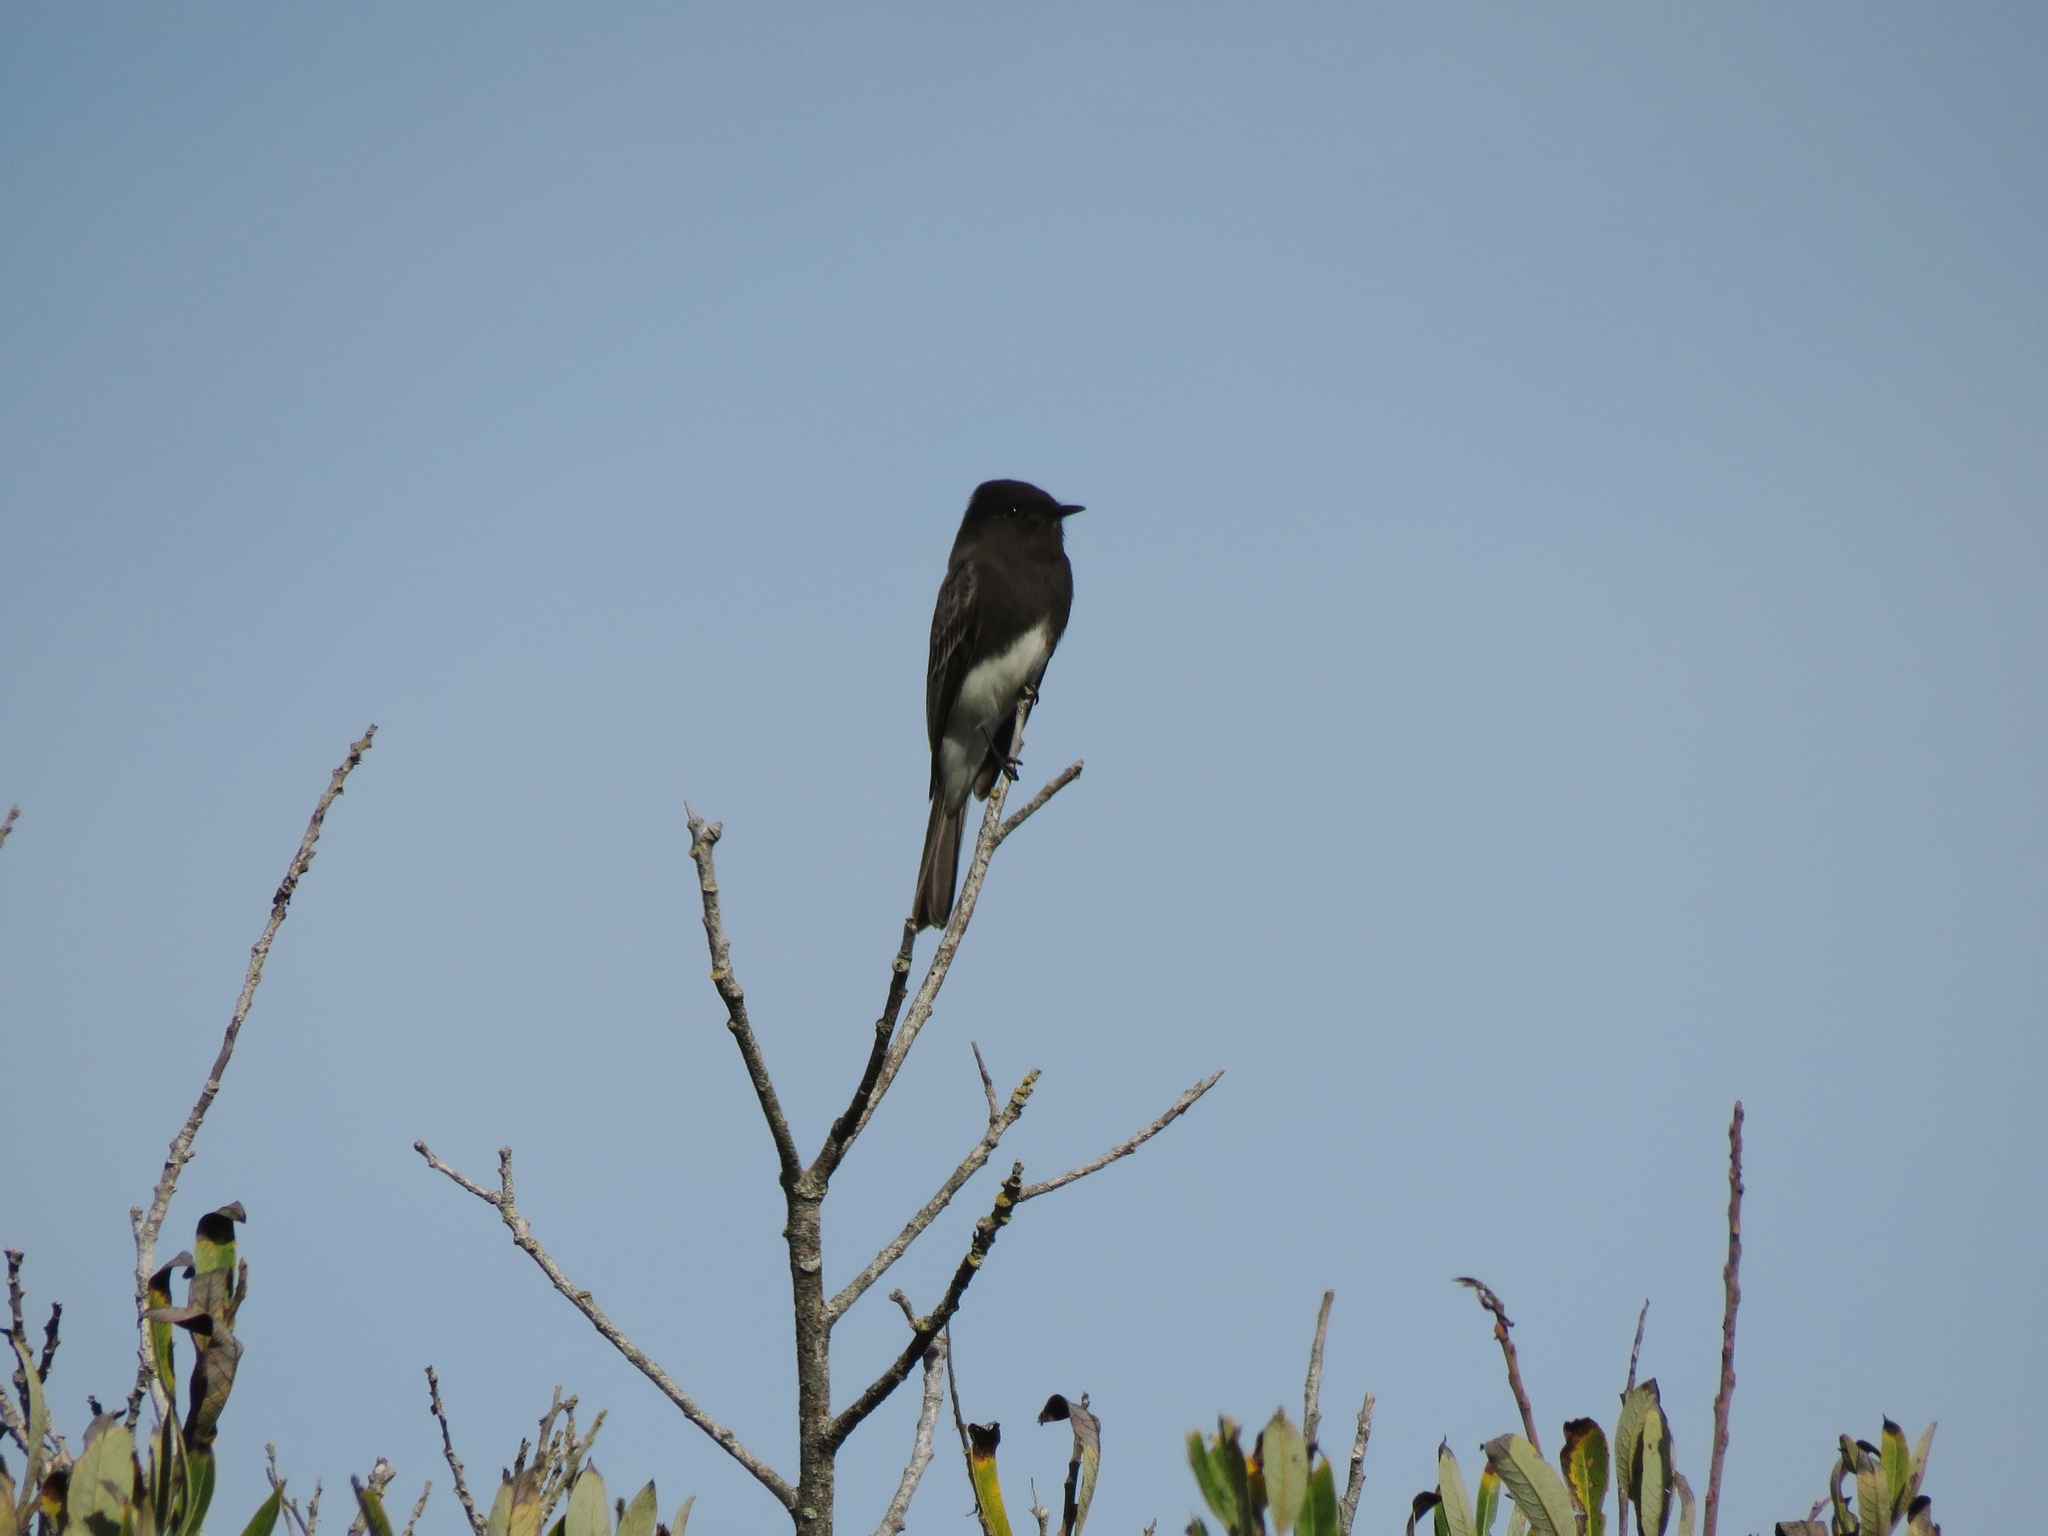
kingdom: Animalia
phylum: Chordata
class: Aves
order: Passeriformes
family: Tyrannidae
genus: Sayornis
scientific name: Sayornis nigricans
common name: Black phoebe
